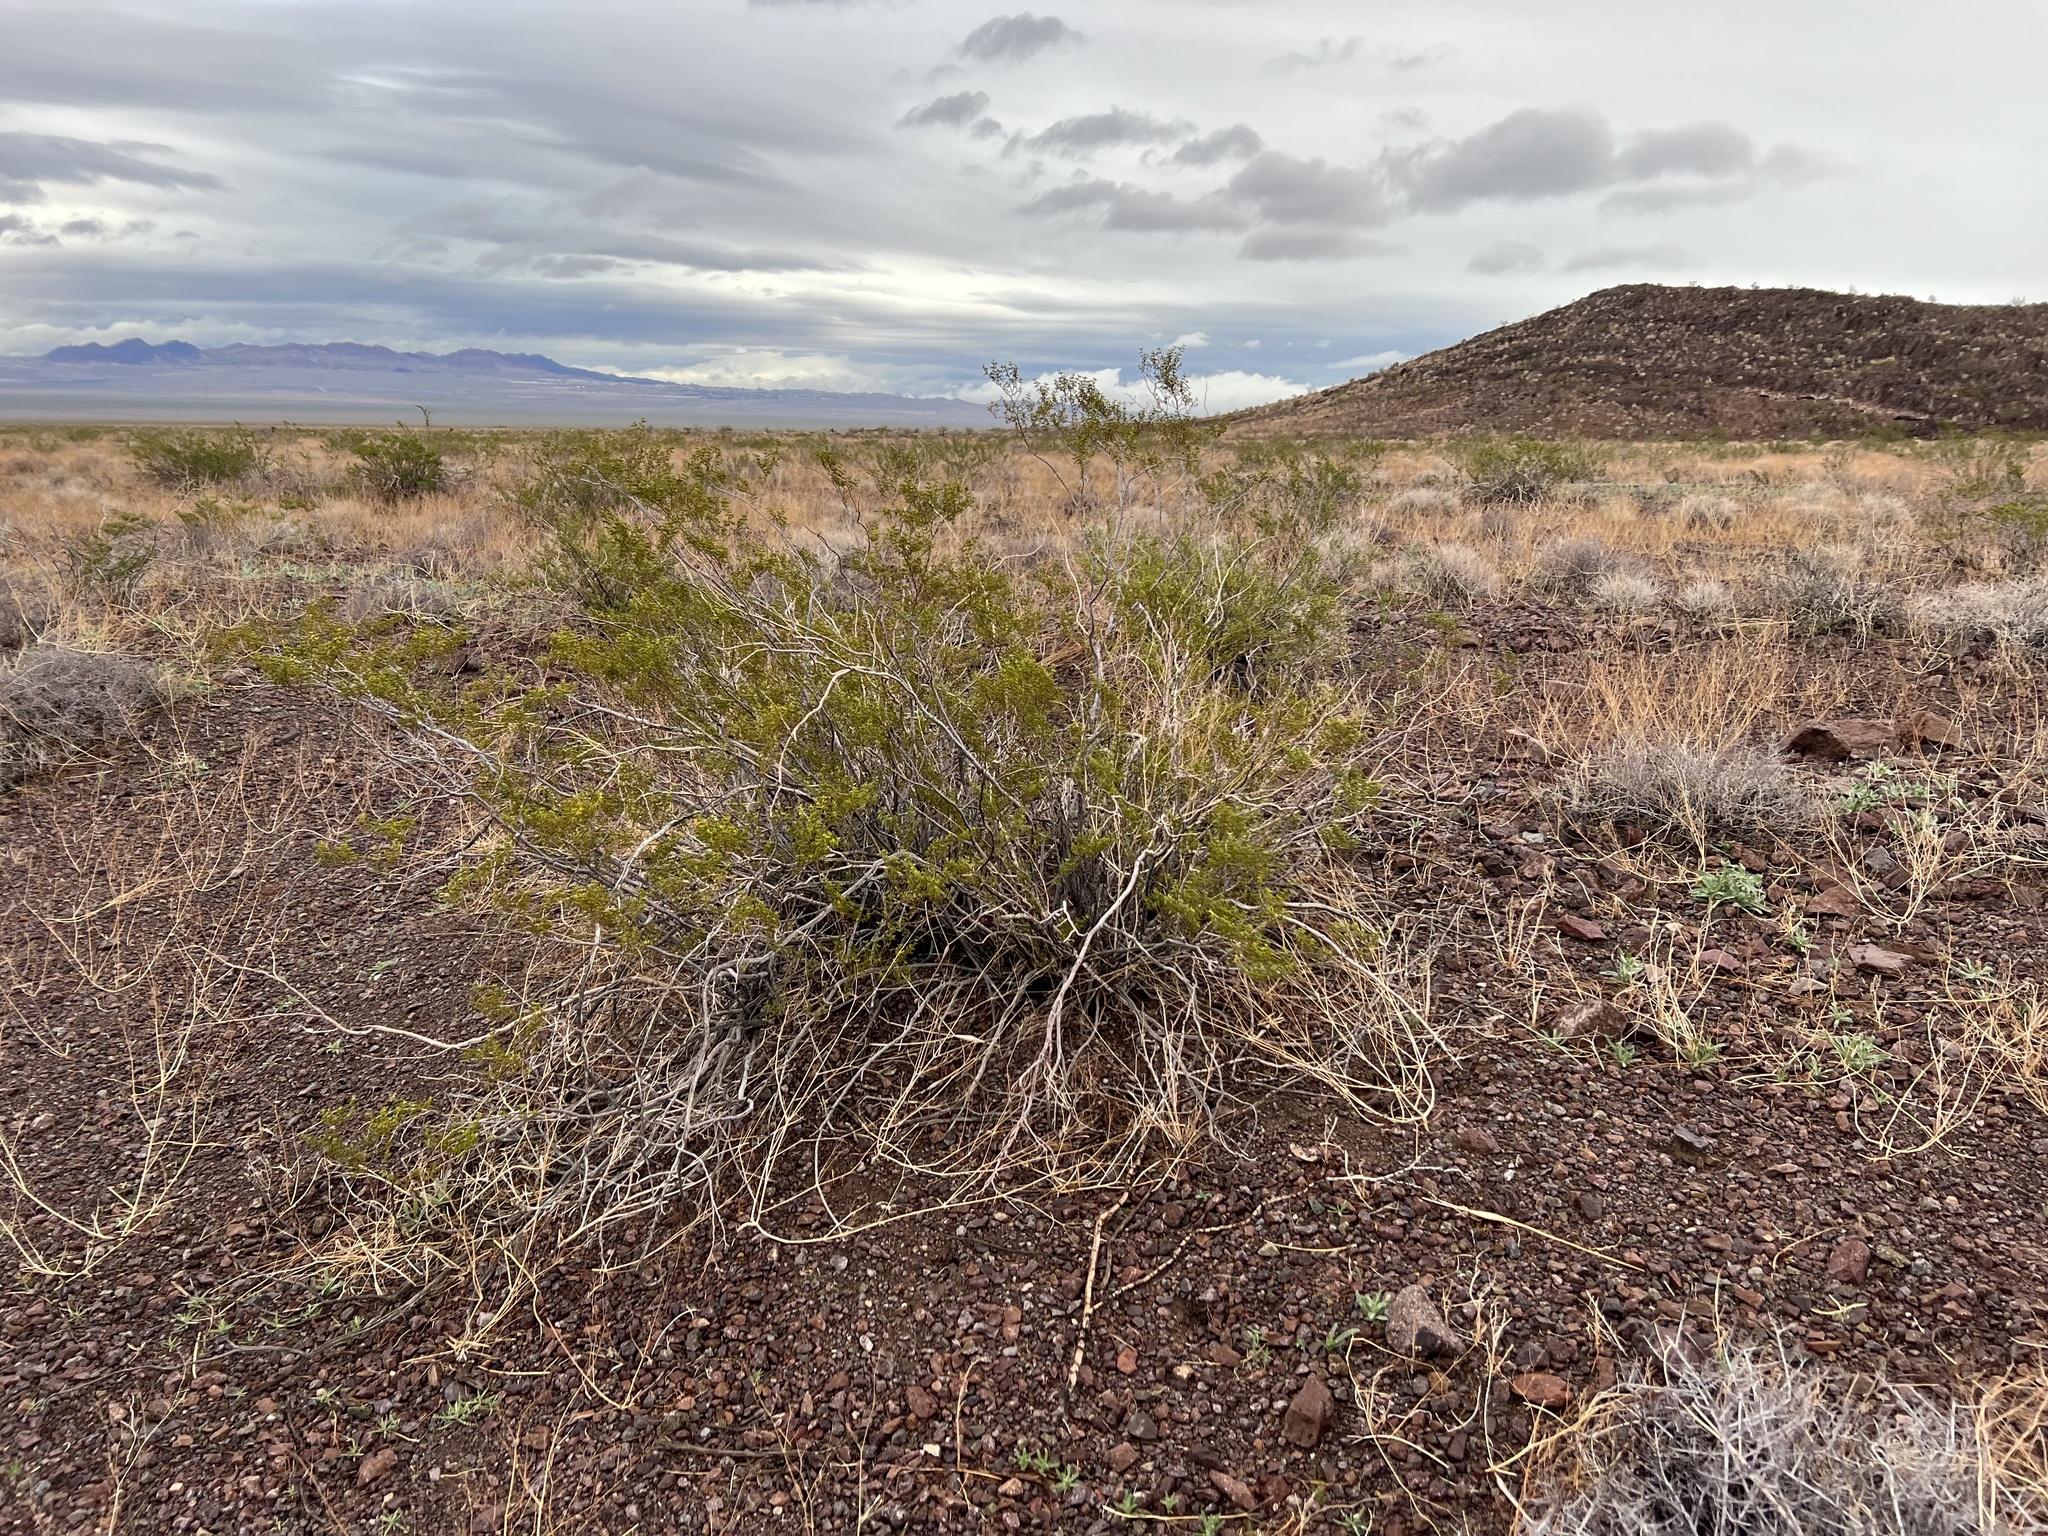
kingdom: Plantae
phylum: Tracheophyta
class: Magnoliopsida
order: Zygophyllales
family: Zygophyllaceae
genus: Larrea
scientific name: Larrea tridentata
